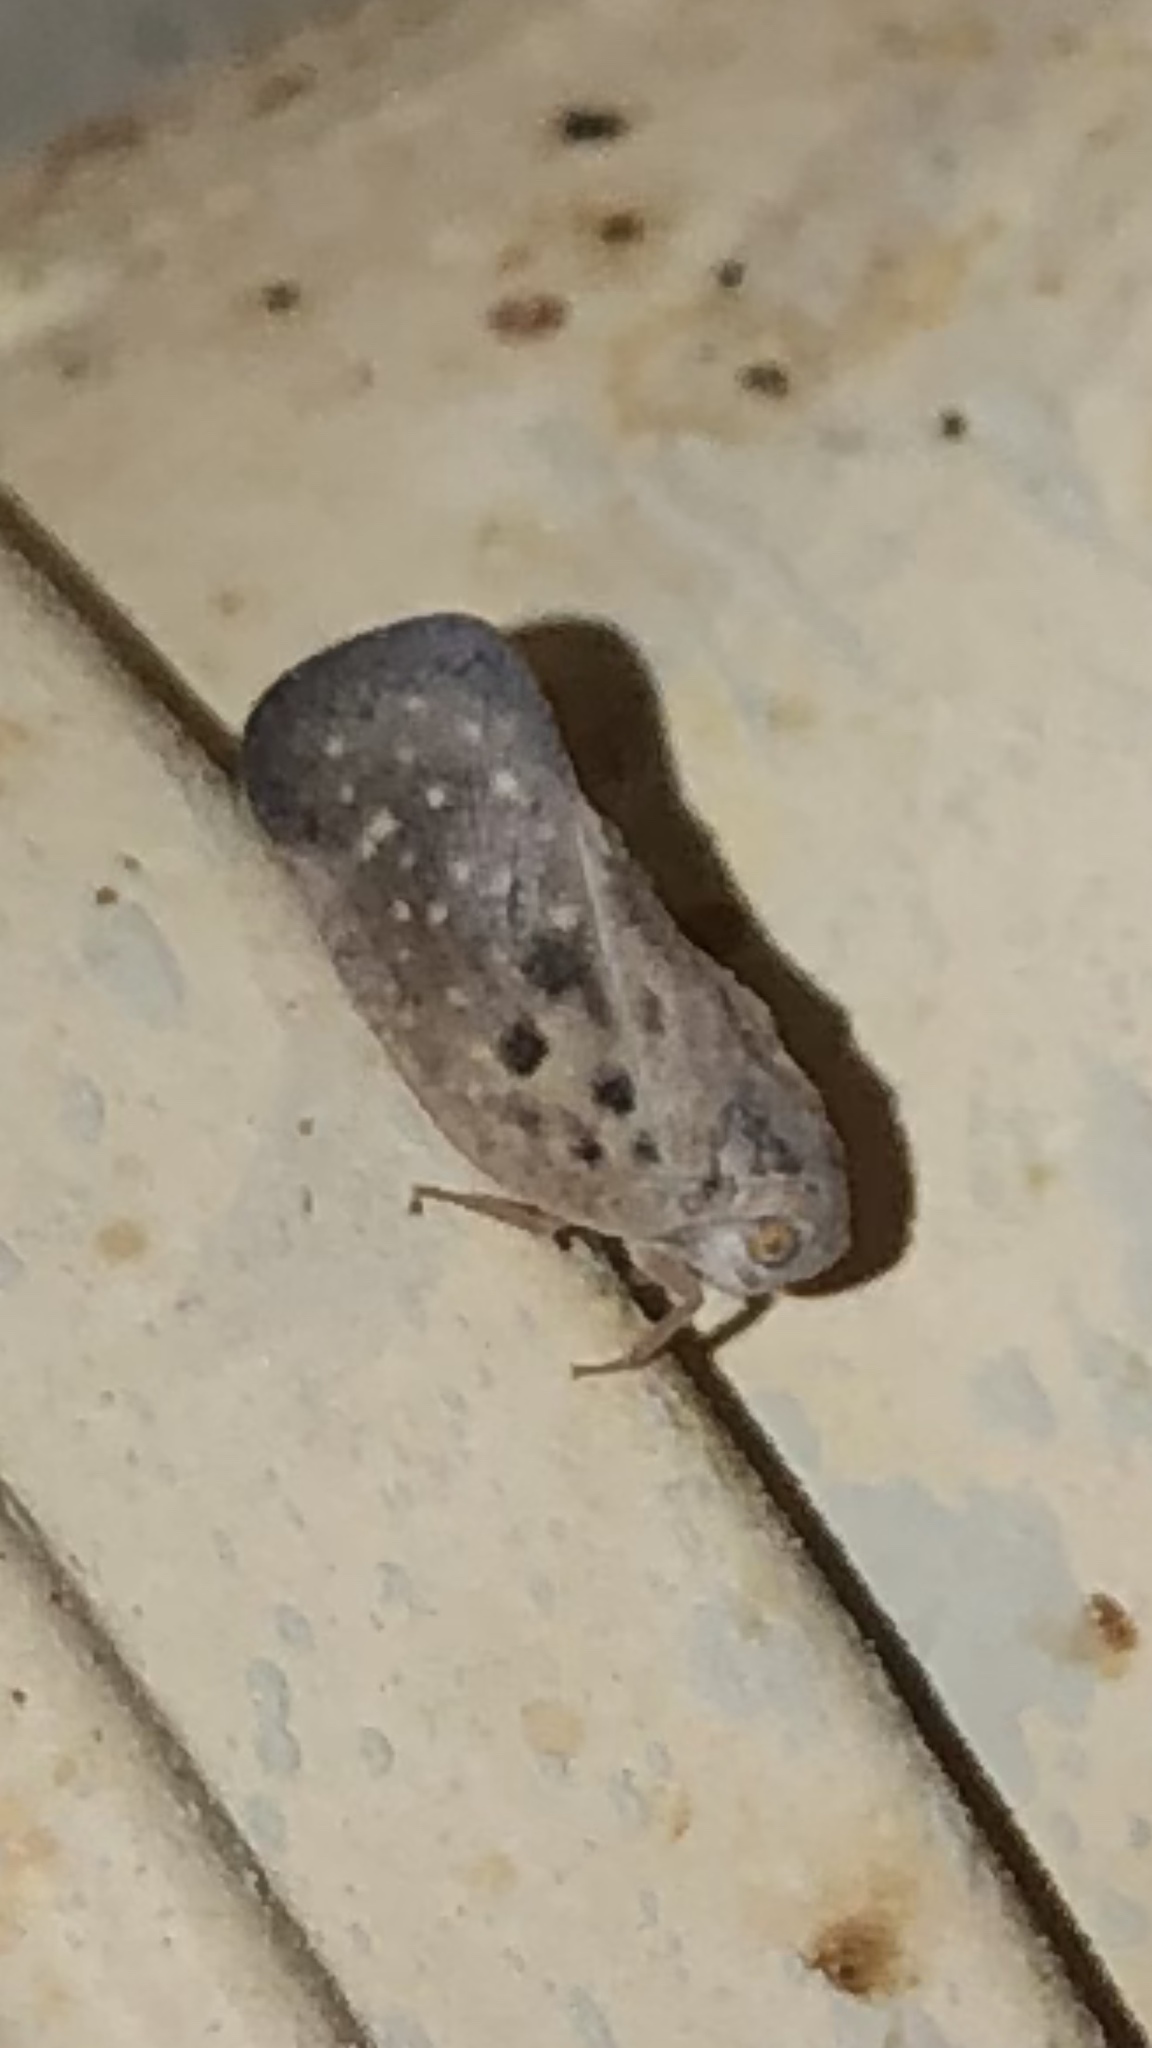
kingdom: Animalia
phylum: Arthropoda
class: Insecta
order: Hemiptera
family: Flatidae
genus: Metcalfa
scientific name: Metcalfa pruinosa
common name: Citrus flatid planthopper
